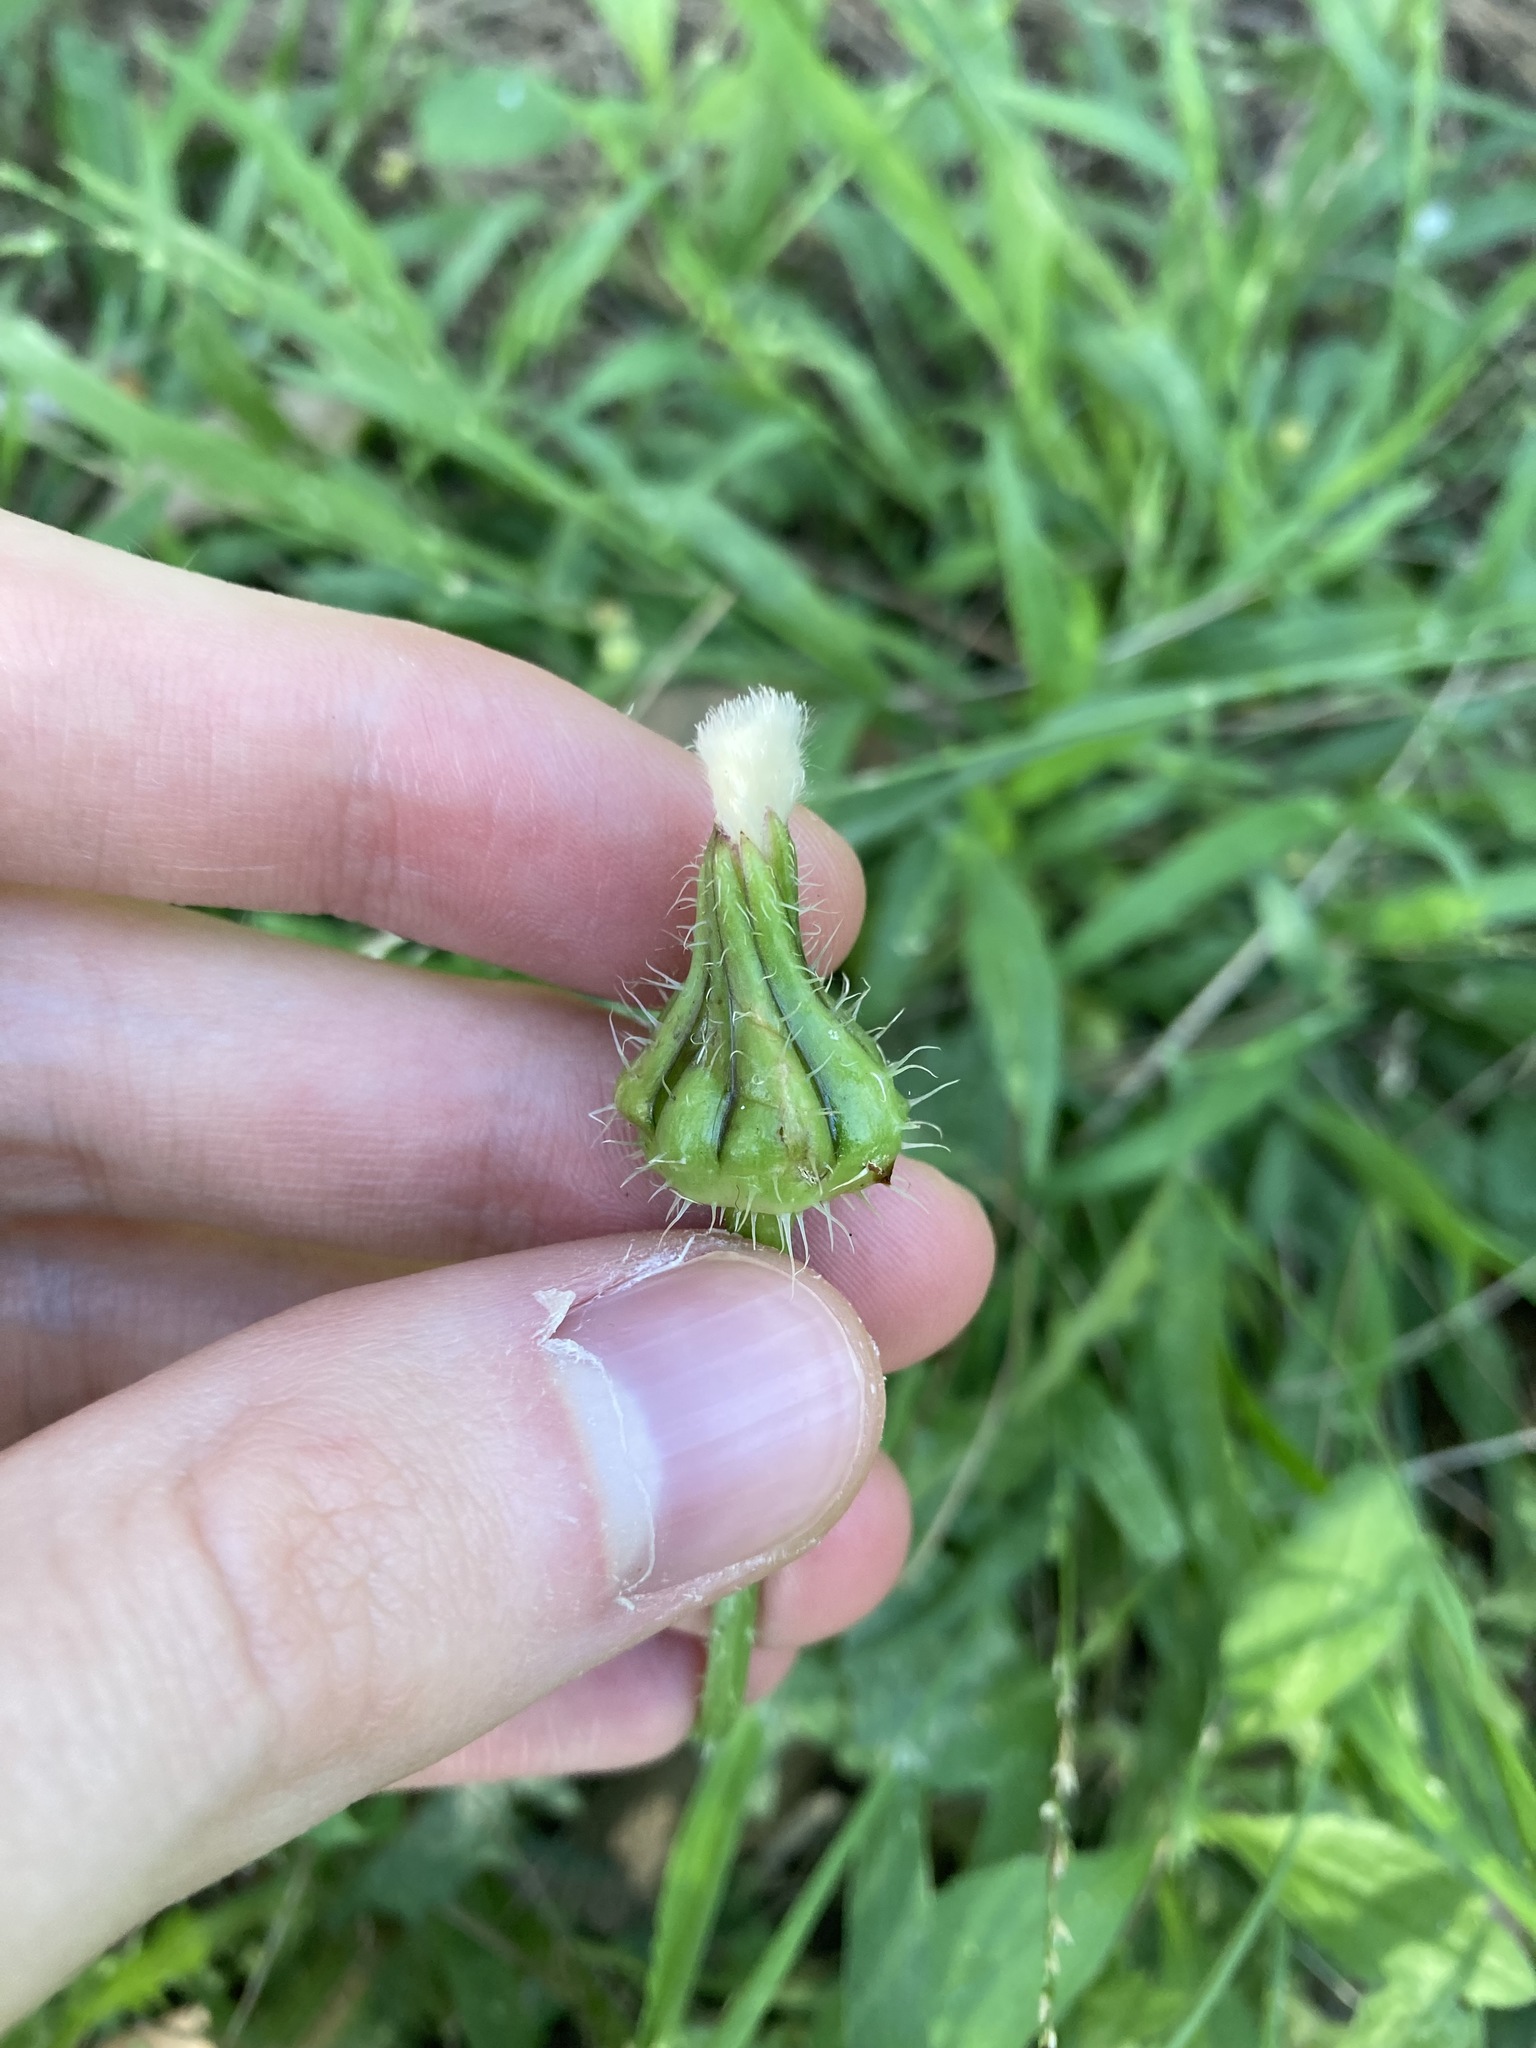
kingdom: Plantae
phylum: Tracheophyta
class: Magnoliopsida
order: Asterales
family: Asteraceae
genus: Urospermum
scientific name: Urospermum picroides
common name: False hawkbit
